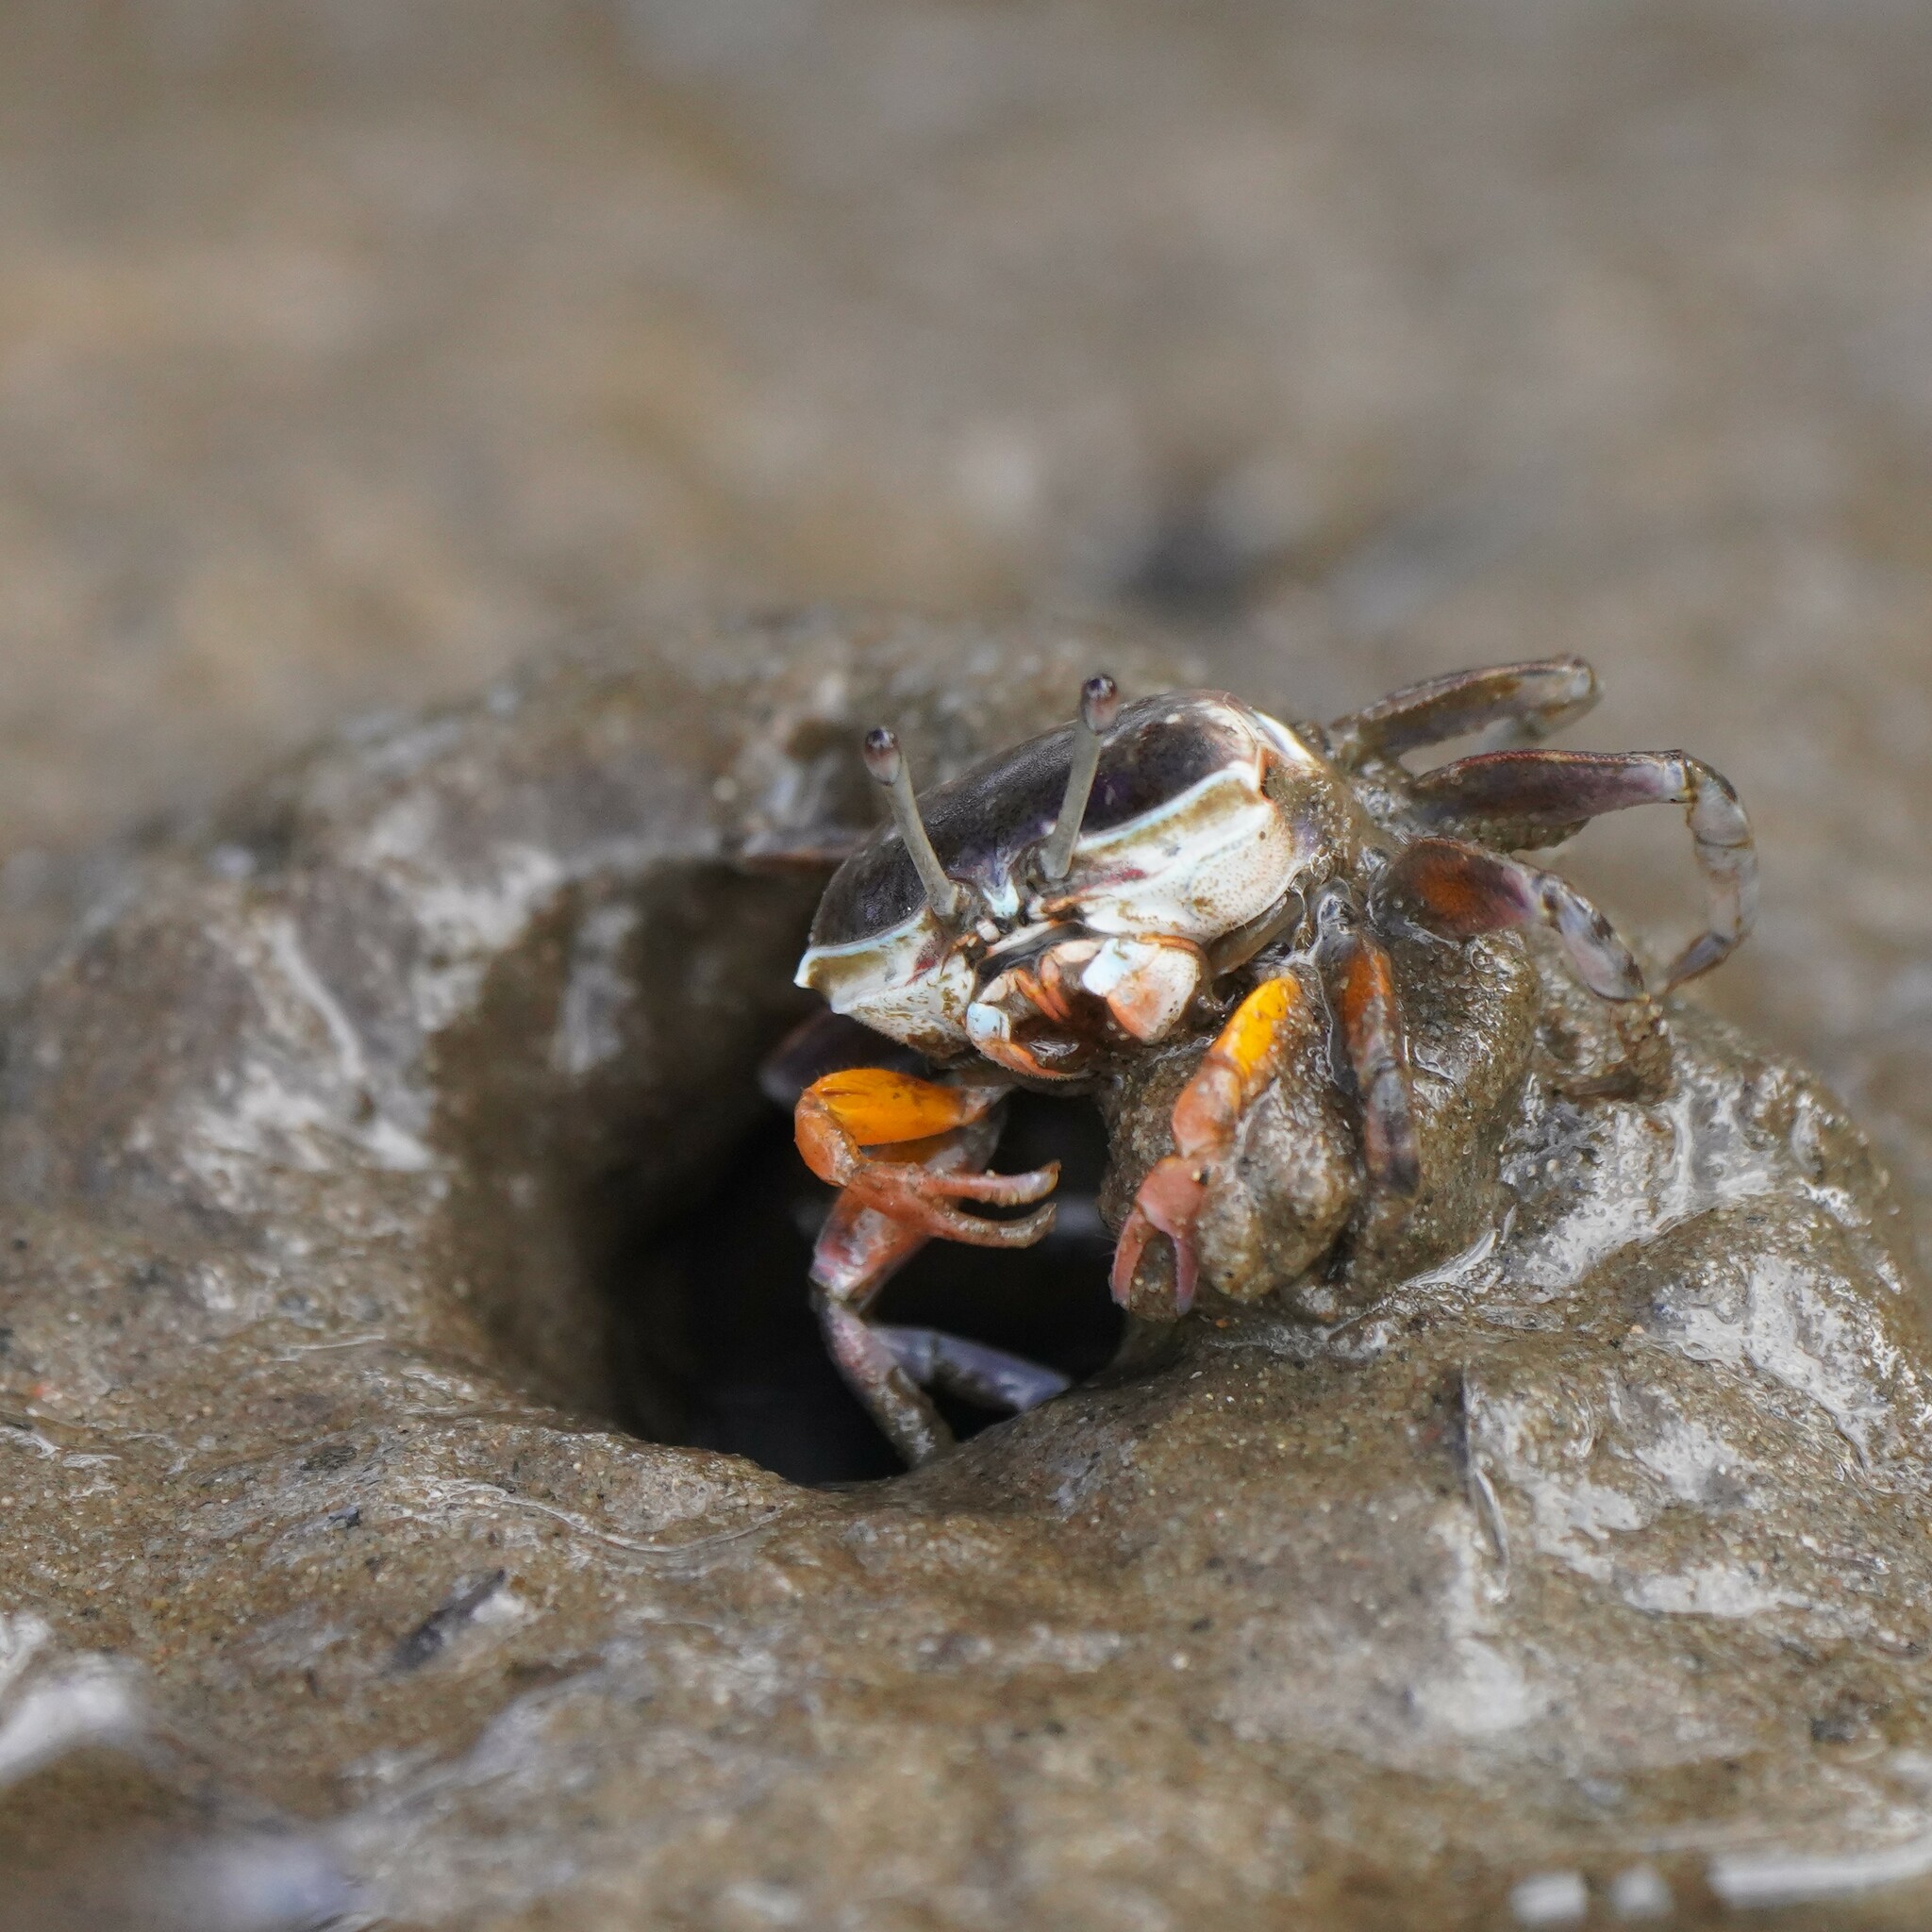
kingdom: Animalia
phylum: Arthropoda
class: Malacostraca
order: Decapoda
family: Ocypodidae
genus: Gelasimus
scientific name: Gelasimus vomeris
